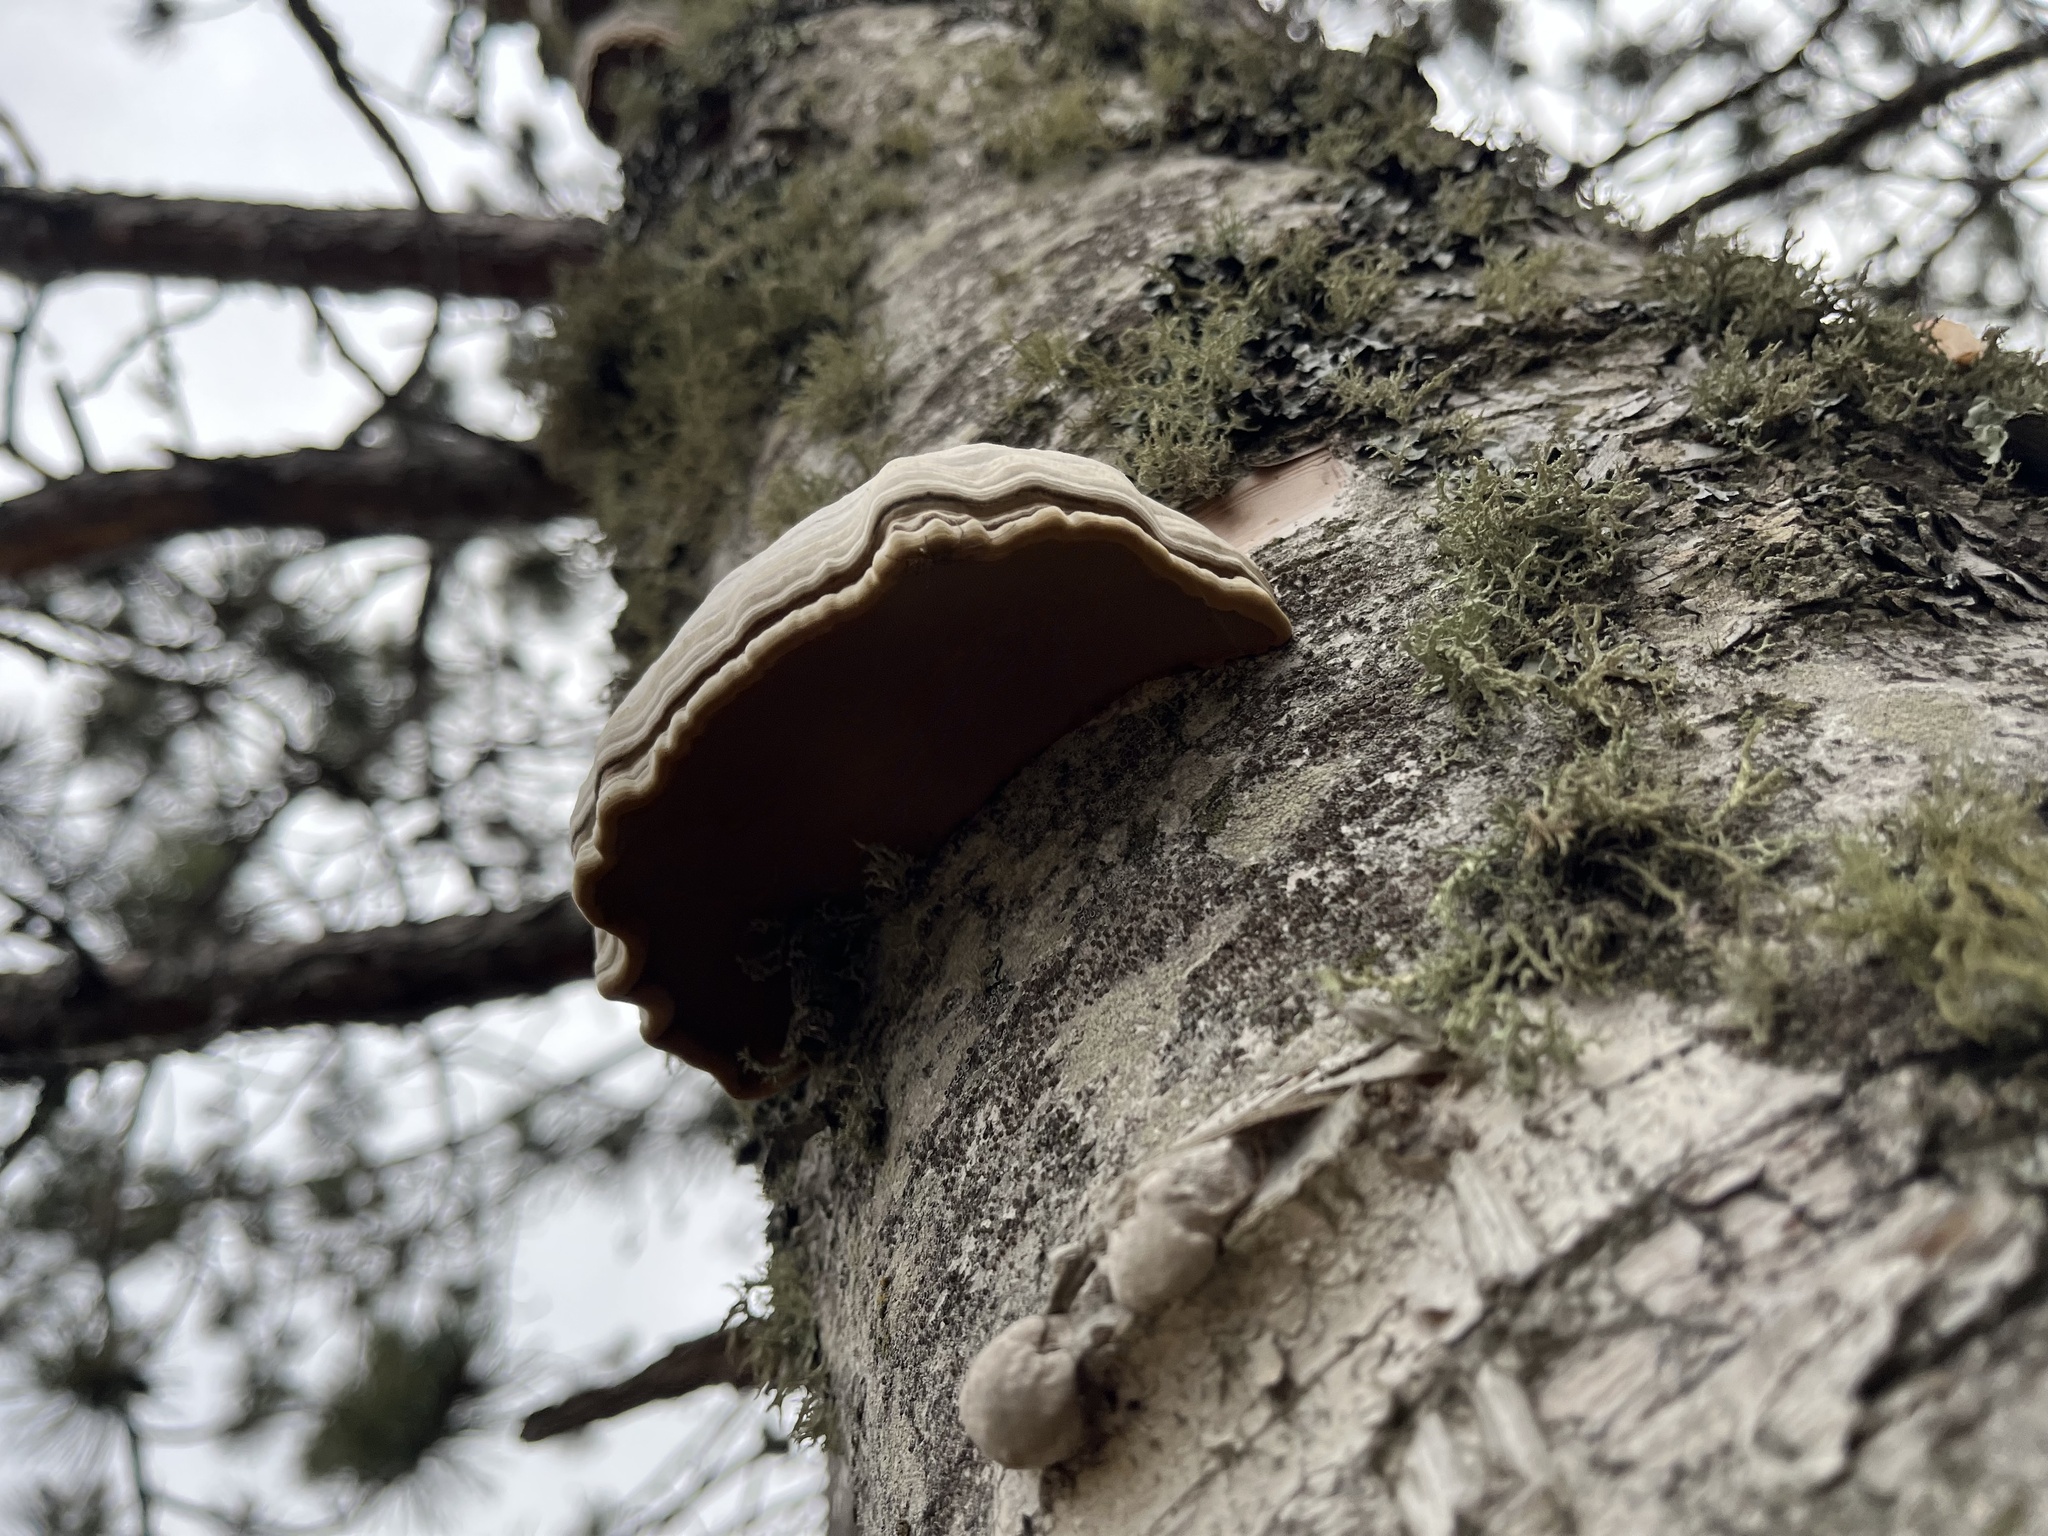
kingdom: Fungi
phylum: Basidiomycota
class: Agaricomycetes
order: Polyporales
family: Polyporaceae
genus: Fomes
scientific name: Fomes fomentarius
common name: Hoof fungus
